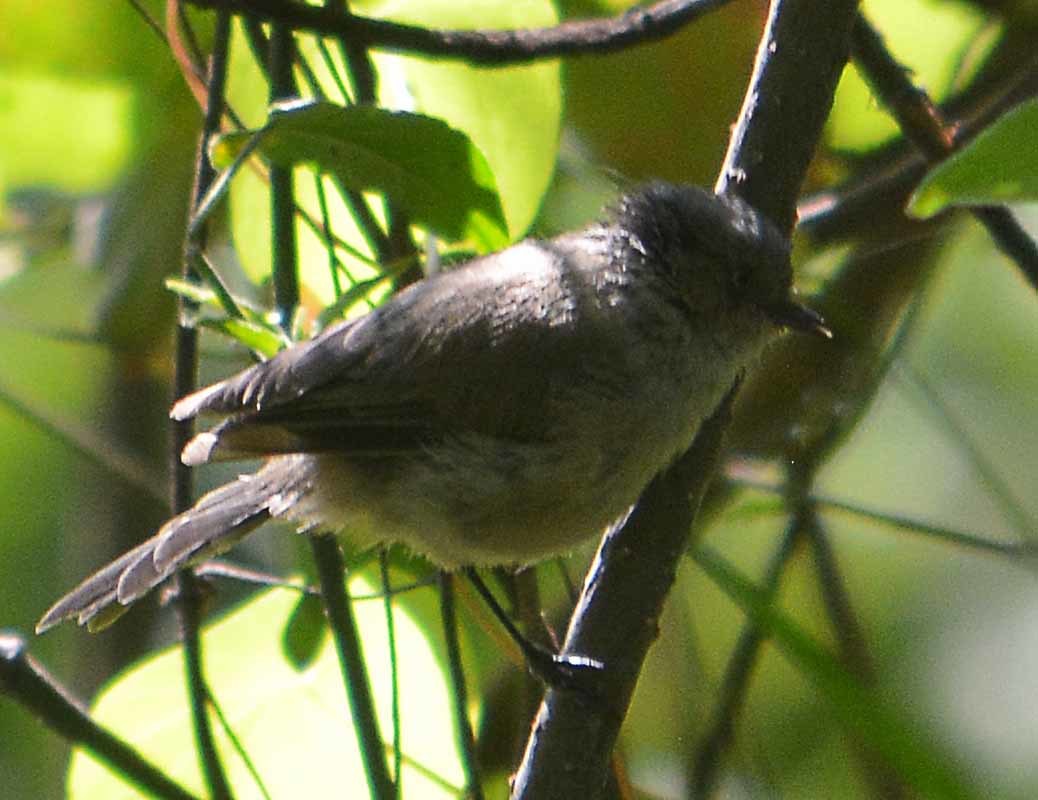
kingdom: Animalia
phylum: Chordata
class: Aves
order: Passeriformes
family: Aegithalidae
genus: Psaltriparus
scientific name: Psaltriparus minimus
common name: American bushtit
